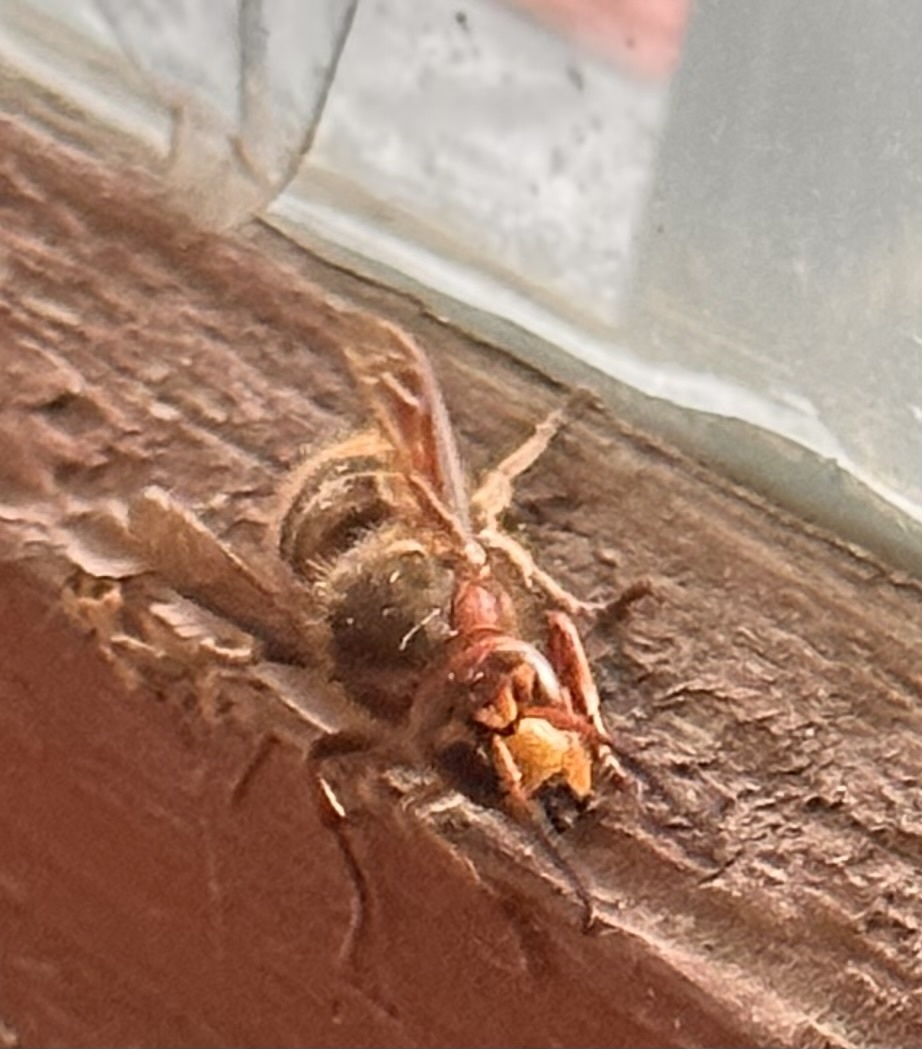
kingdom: Animalia
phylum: Arthropoda
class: Insecta
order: Hymenoptera
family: Vespidae
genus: Vespa
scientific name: Vespa crabro
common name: Hornet
